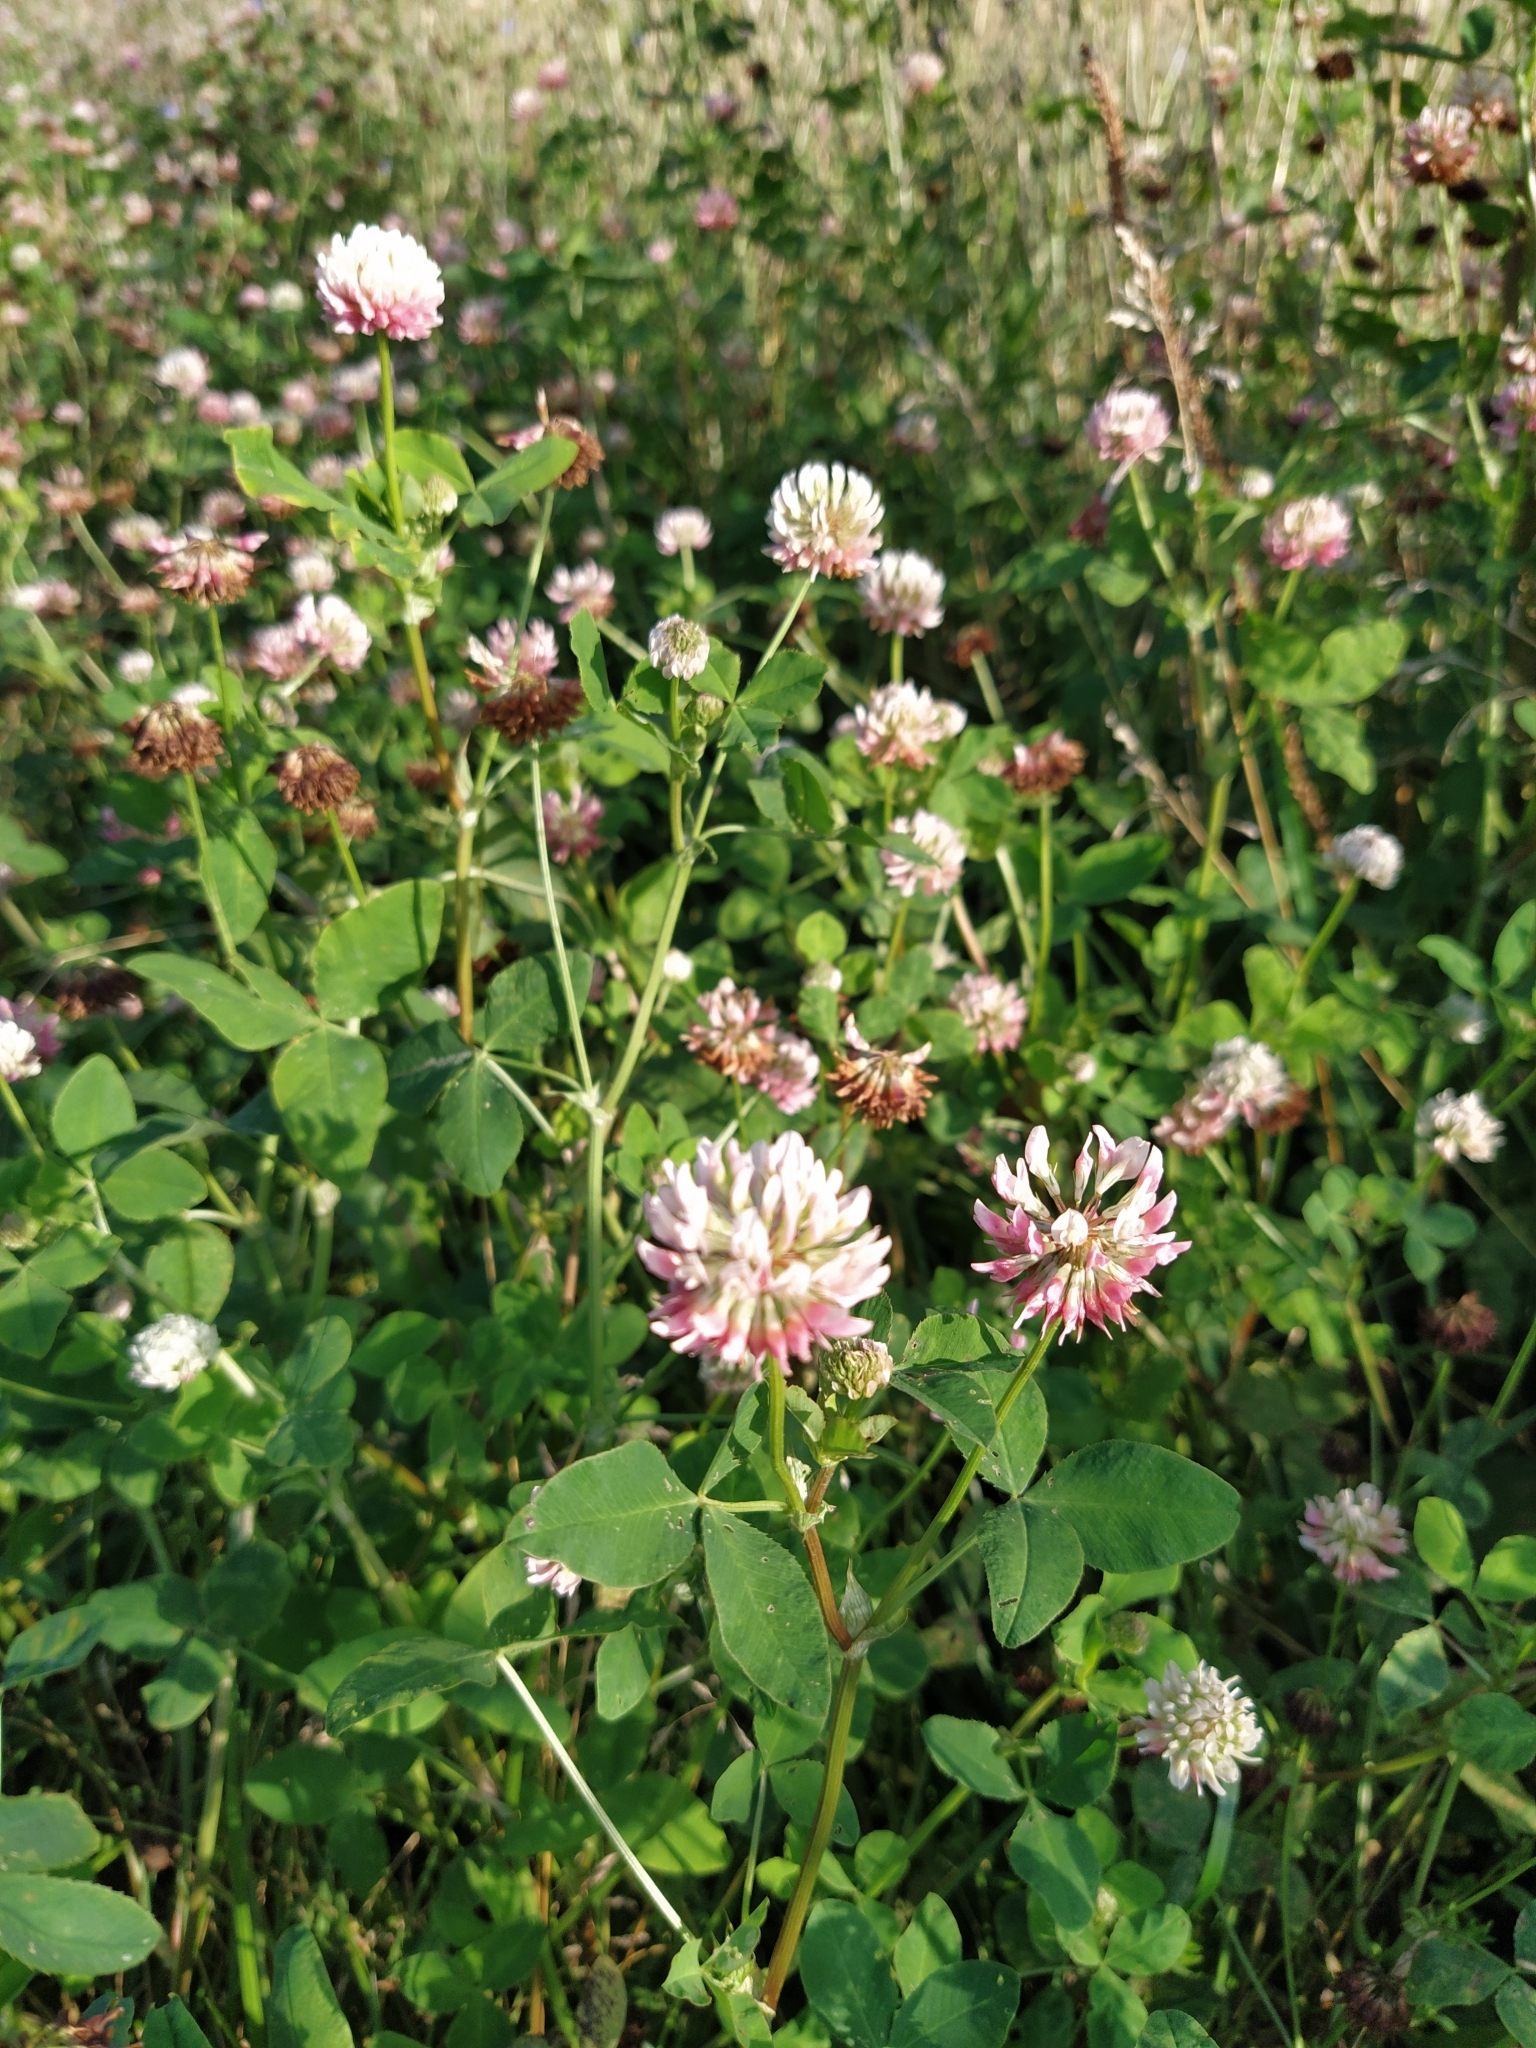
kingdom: Plantae
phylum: Tracheophyta
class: Magnoliopsida
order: Fabales
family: Fabaceae
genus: Trifolium
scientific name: Trifolium hybridum
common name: Alsike clover
